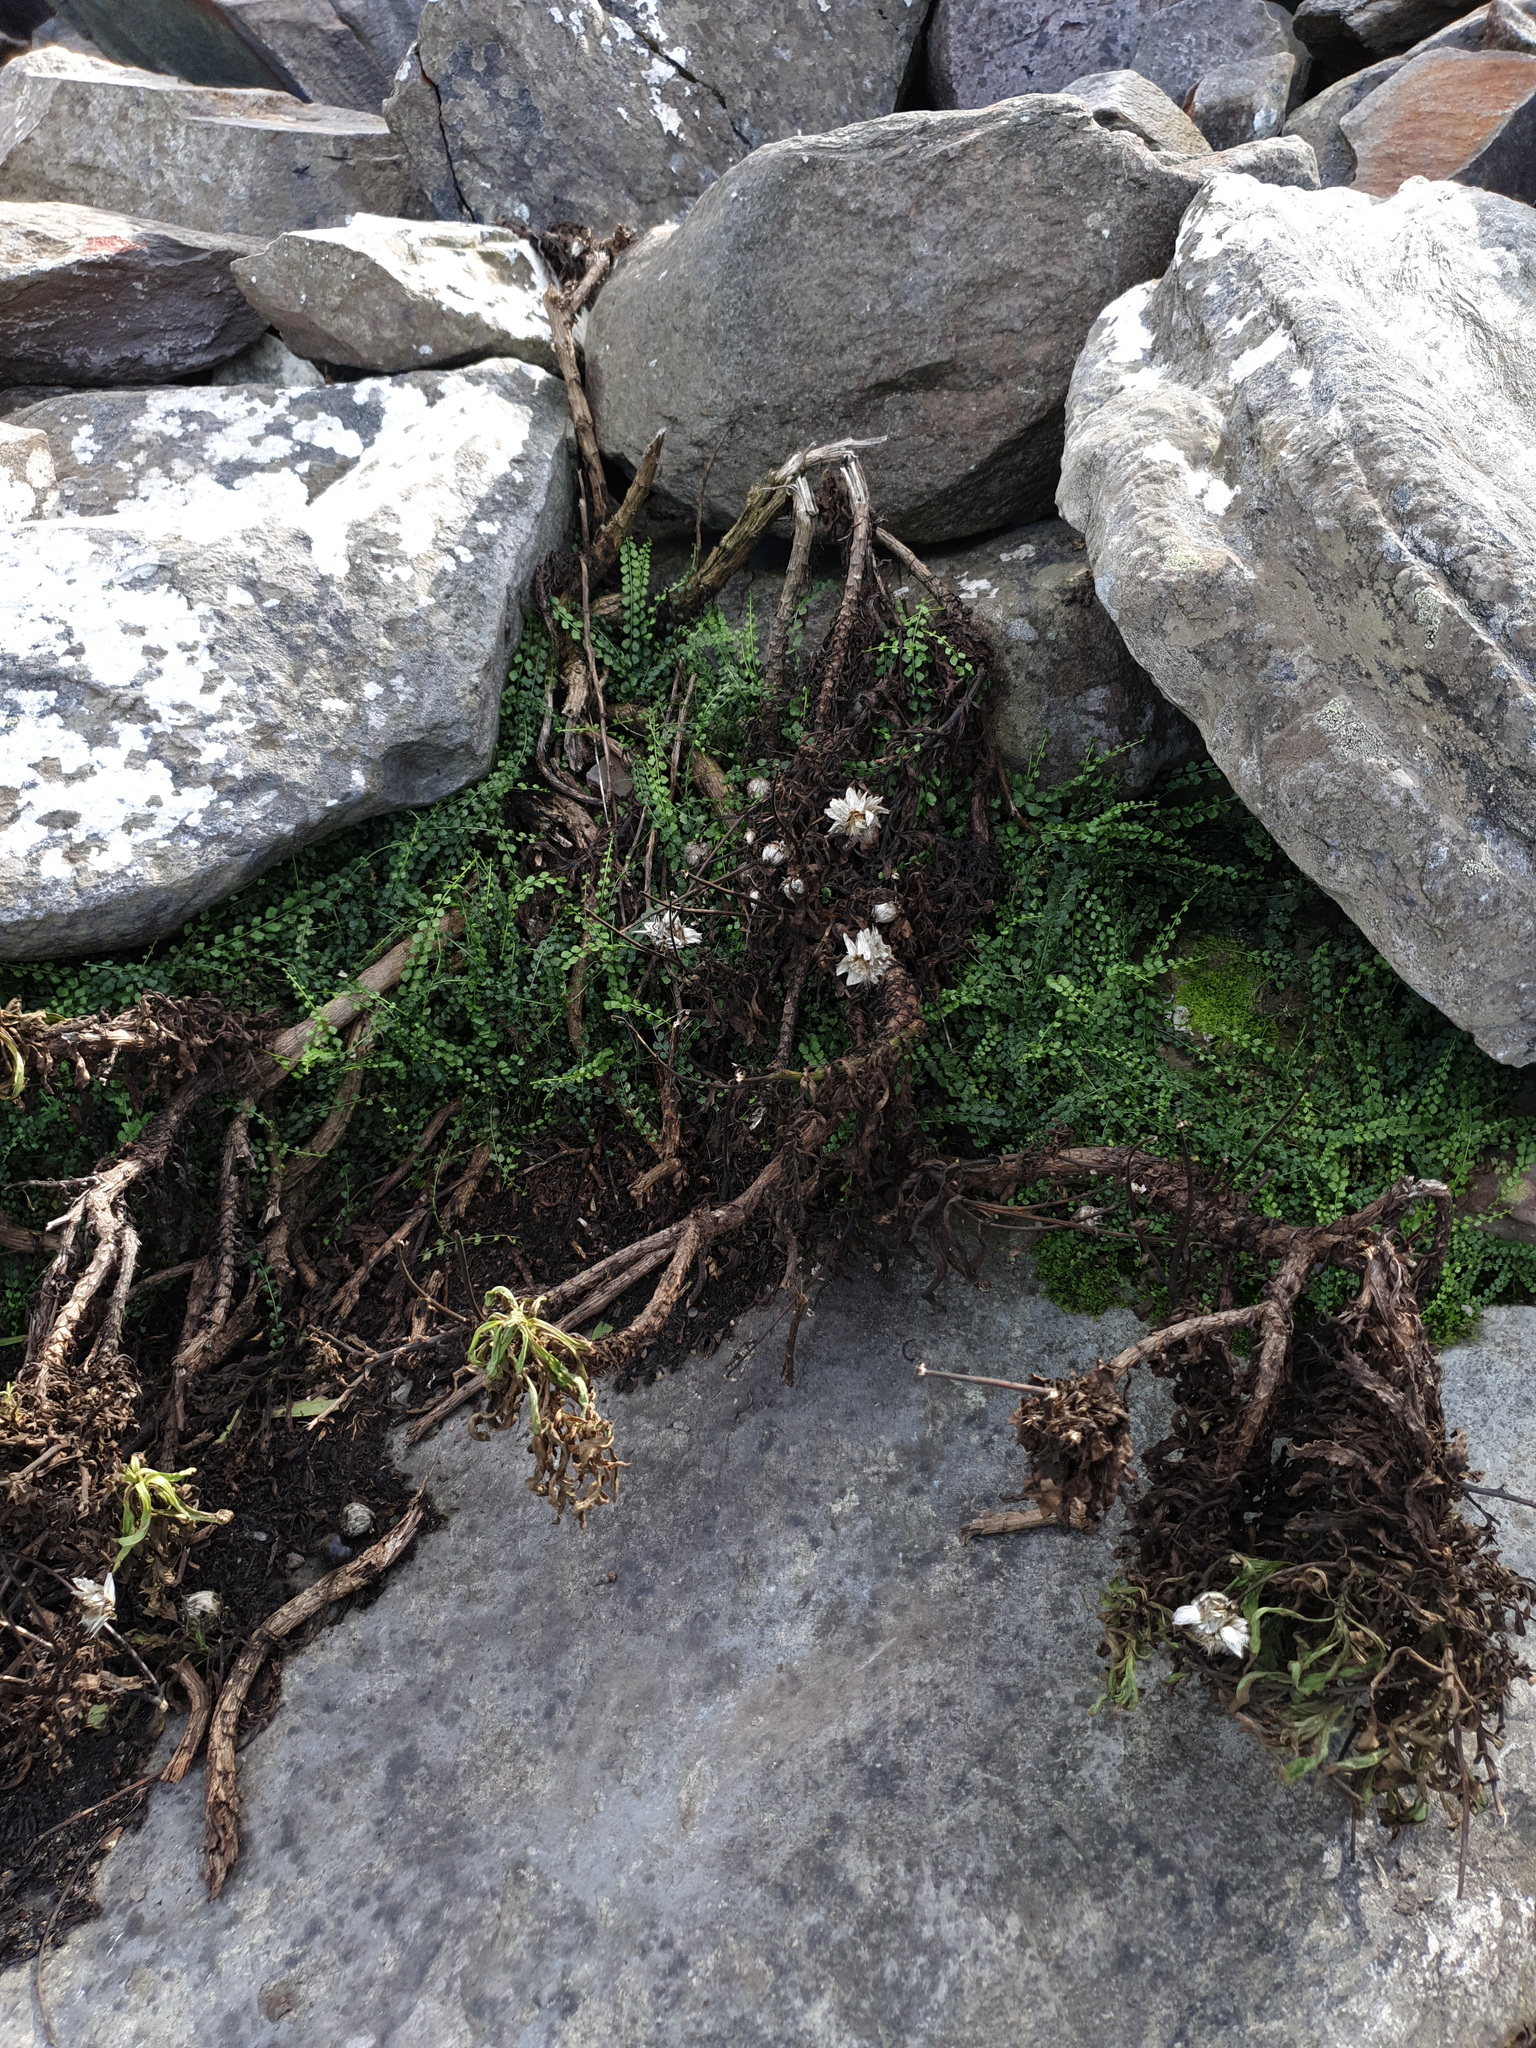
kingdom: Plantae
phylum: Tracheophyta
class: Polypodiopsida
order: Polypodiales
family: Aspleniaceae
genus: Asplenium
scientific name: Asplenium flabellifolium
